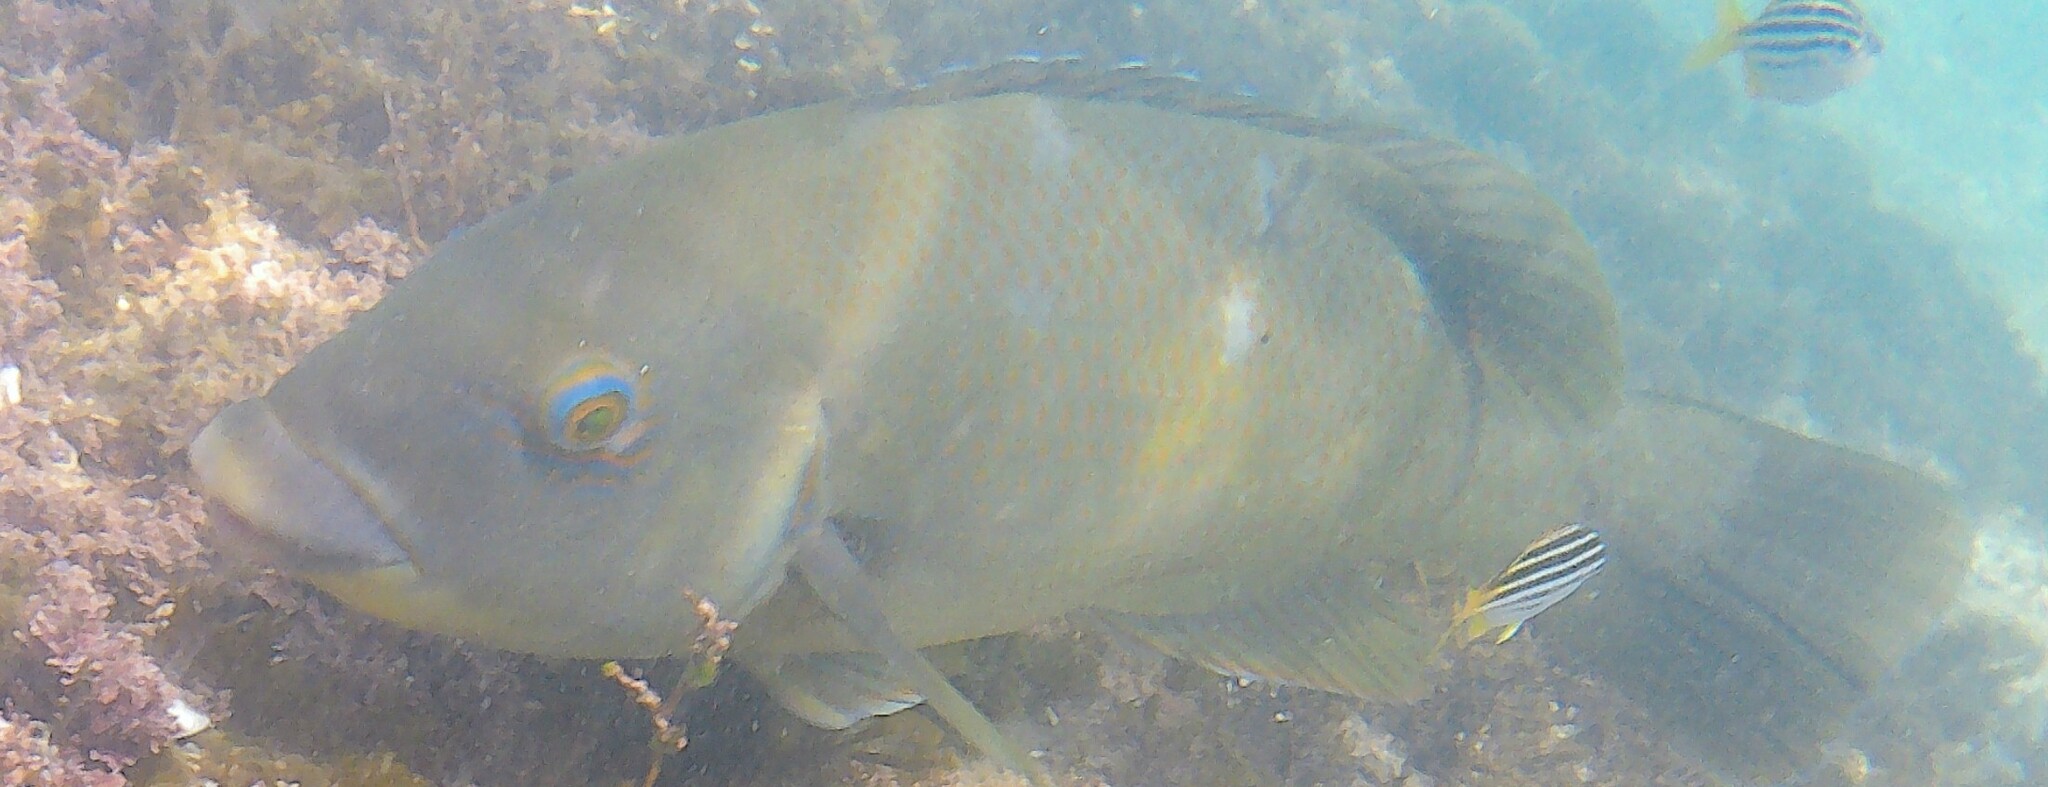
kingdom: Animalia
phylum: Chordata
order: Perciformes
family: Labridae
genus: Achoerodus
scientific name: Achoerodus viridis
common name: Brown groper
